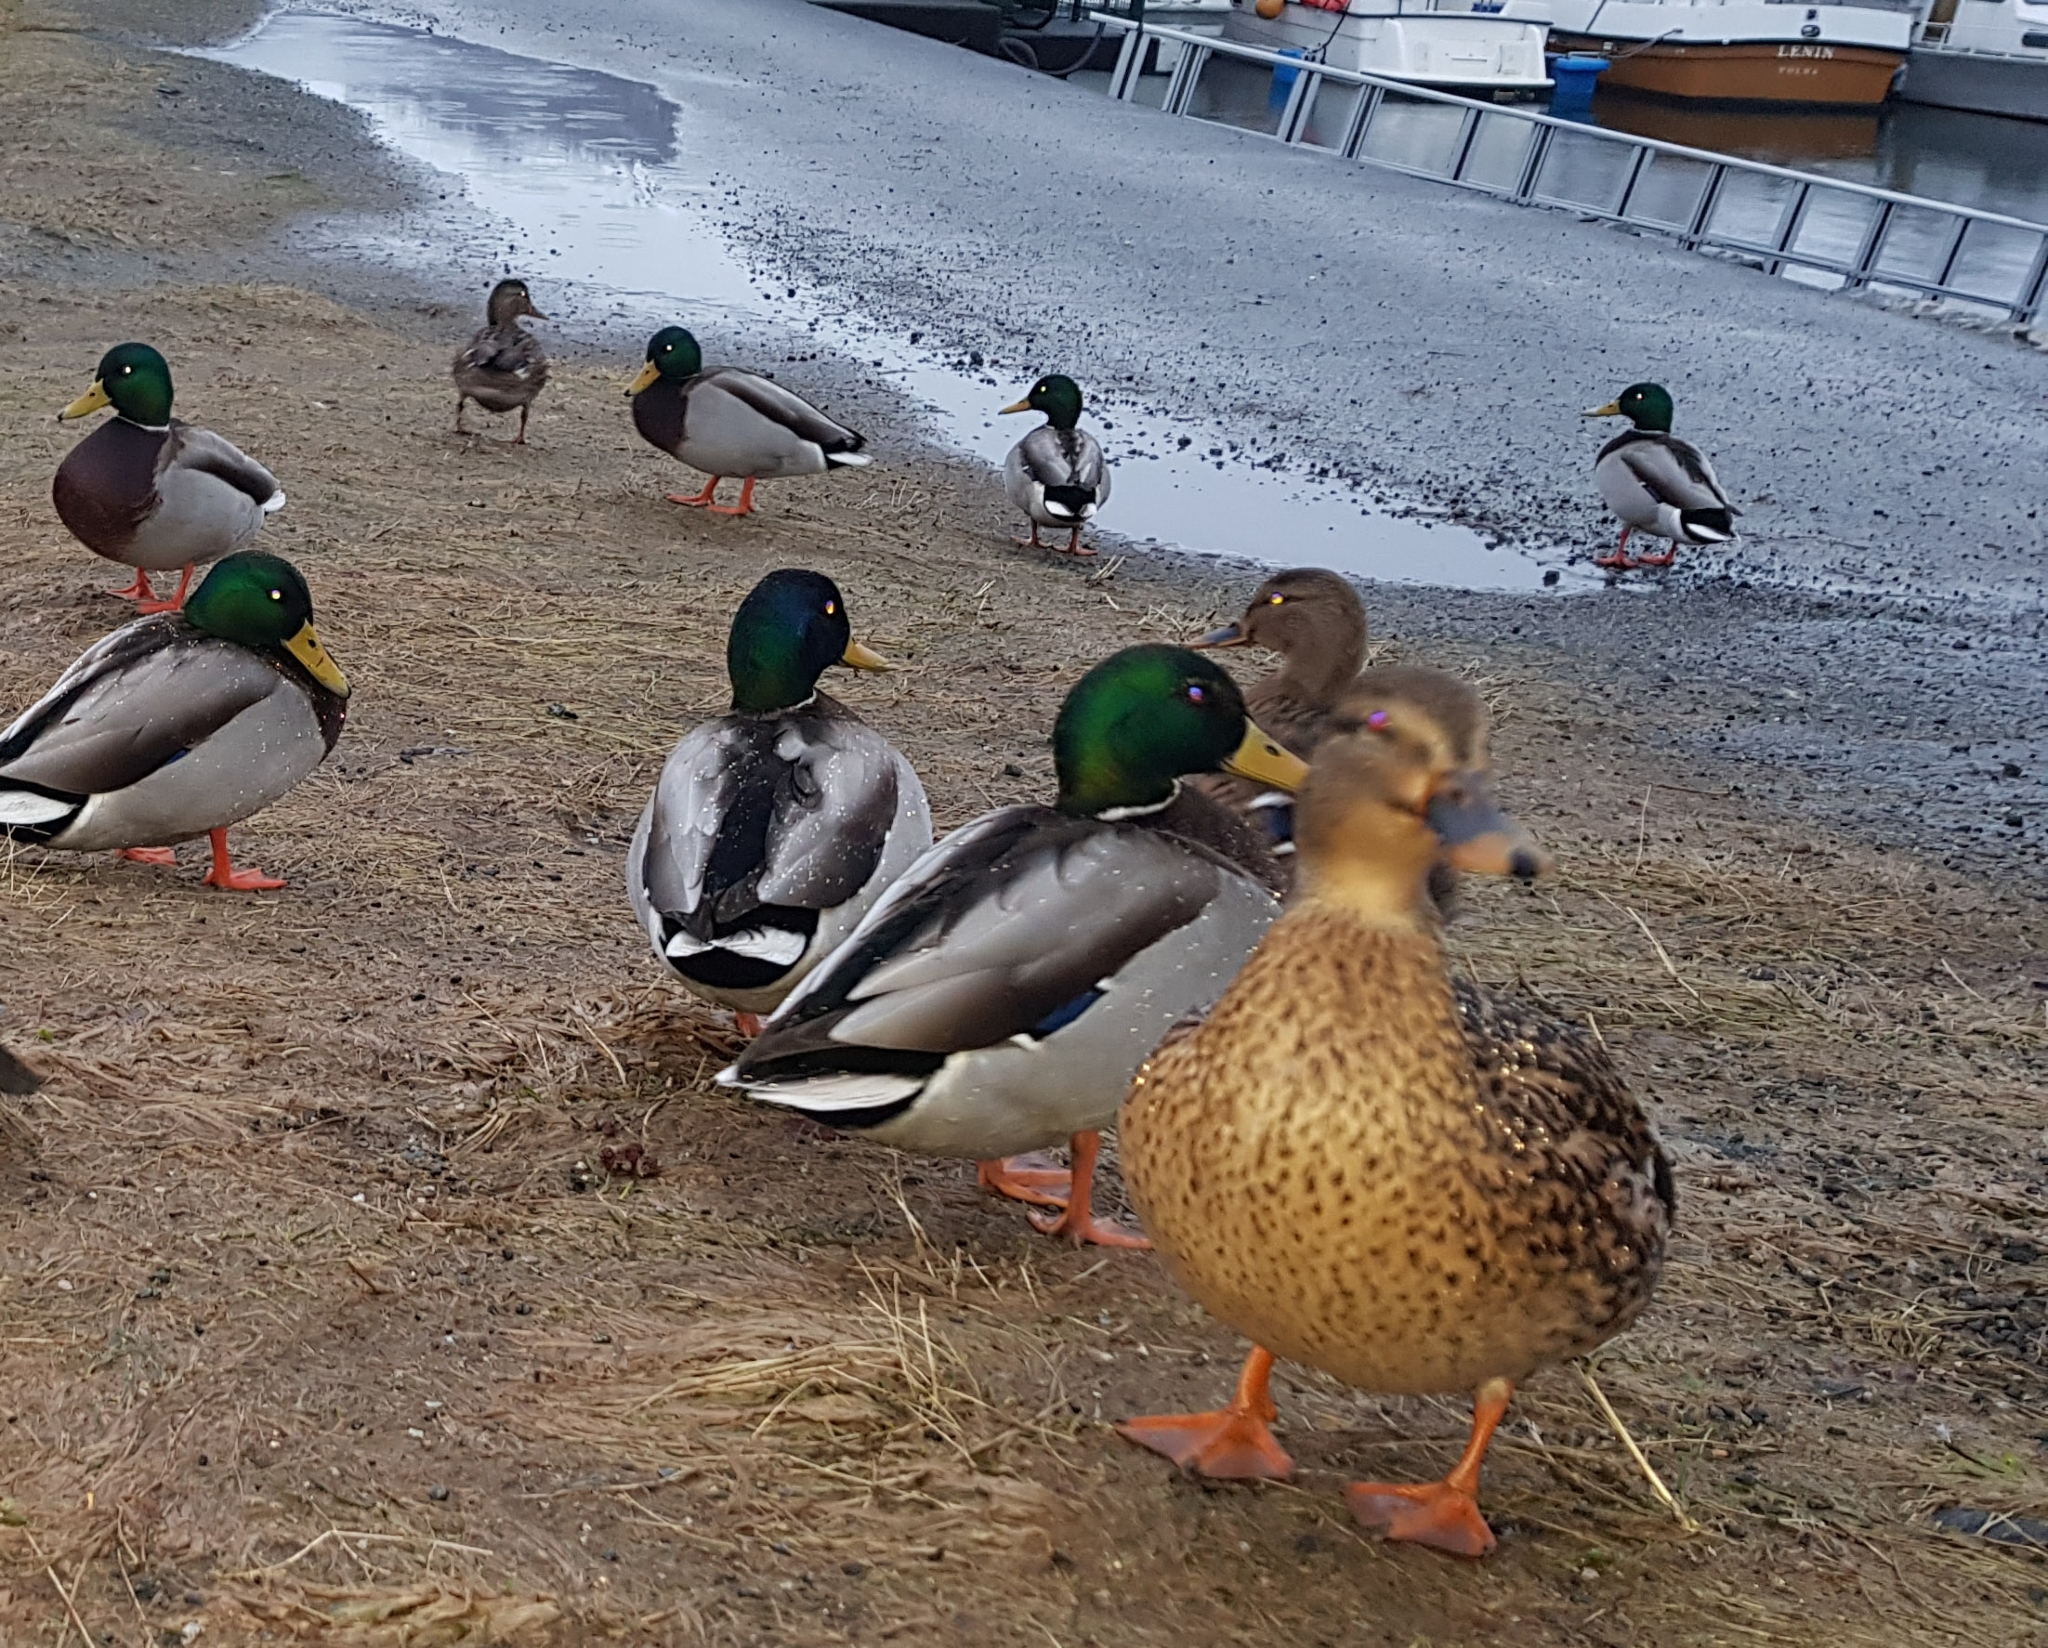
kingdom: Animalia
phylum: Chordata
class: Aves
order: Anseriformes
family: Anatidae
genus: Anas
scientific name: Anas platyrhynchos
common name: Mallard
